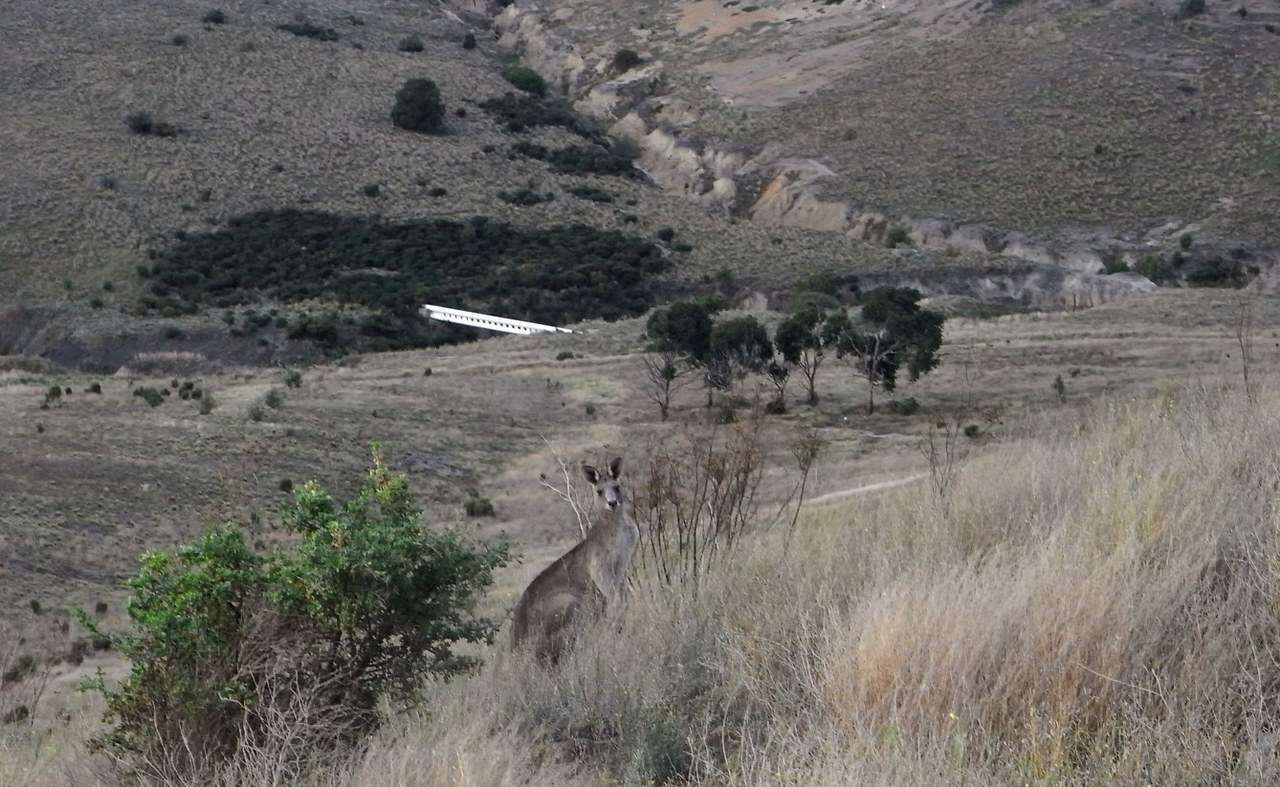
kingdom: Animalia
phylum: Chordata
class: Mammalia
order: Diprotodontia
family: Macropodidae
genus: Macropus
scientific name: Macropus giganteus
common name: Eastern grey kangaroo
